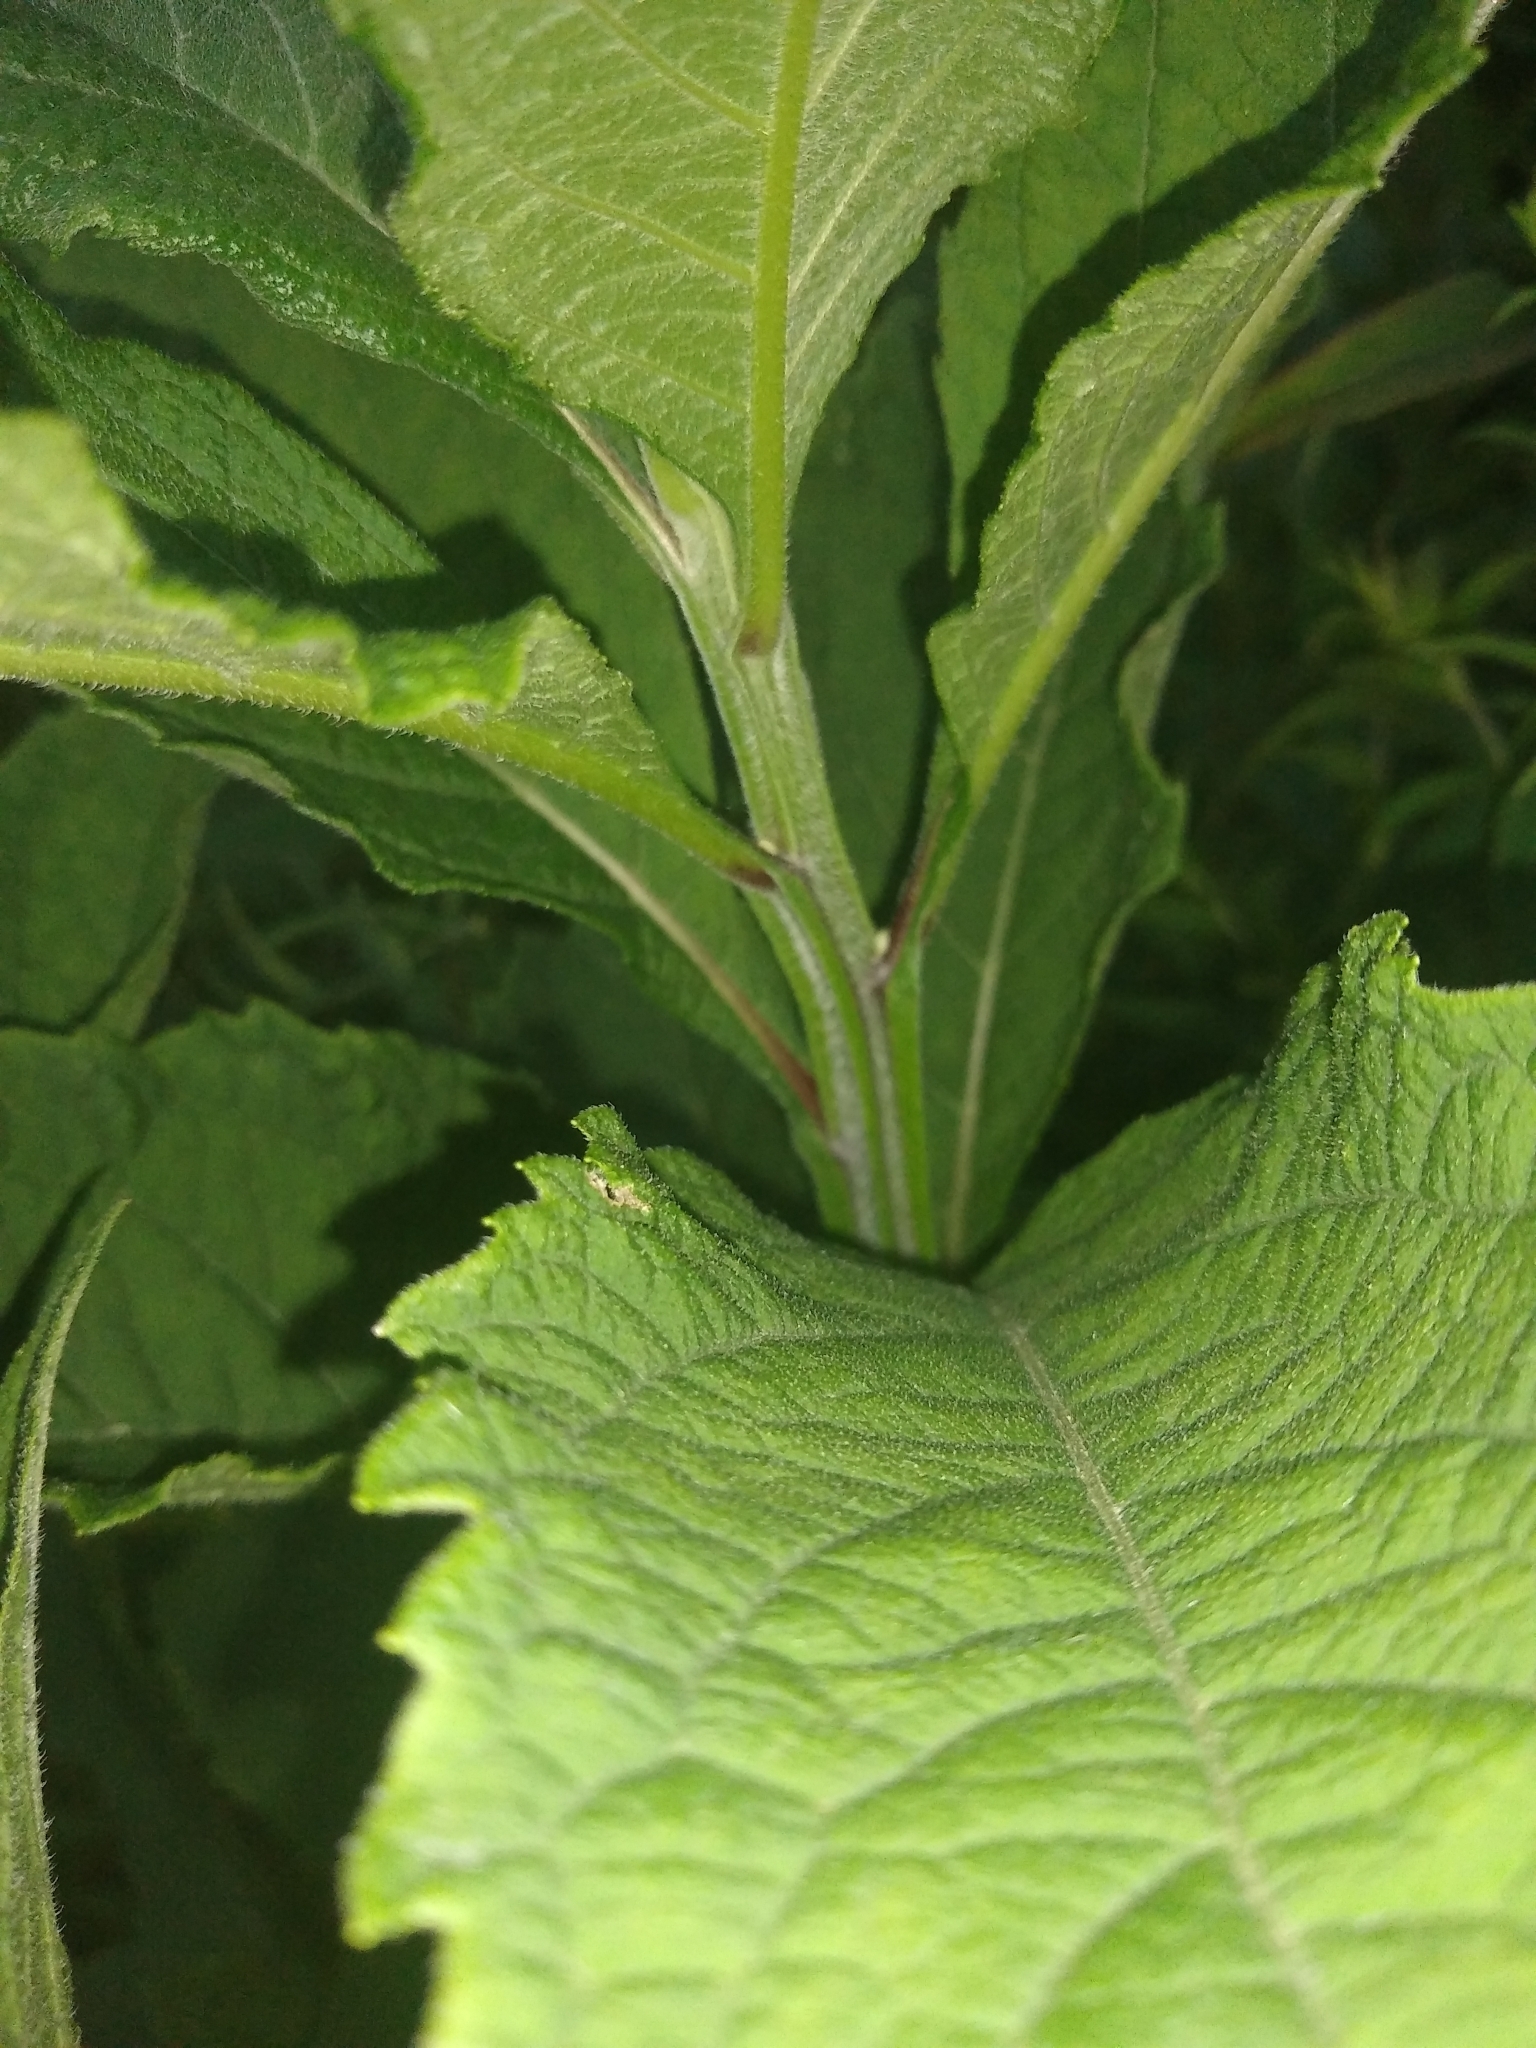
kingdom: Plantae
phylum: Tracheophyta
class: Magnoliopsida
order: Asterales
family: Asteraceae
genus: Verbesina
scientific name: Verbesina alternifolia
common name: Wingstem
